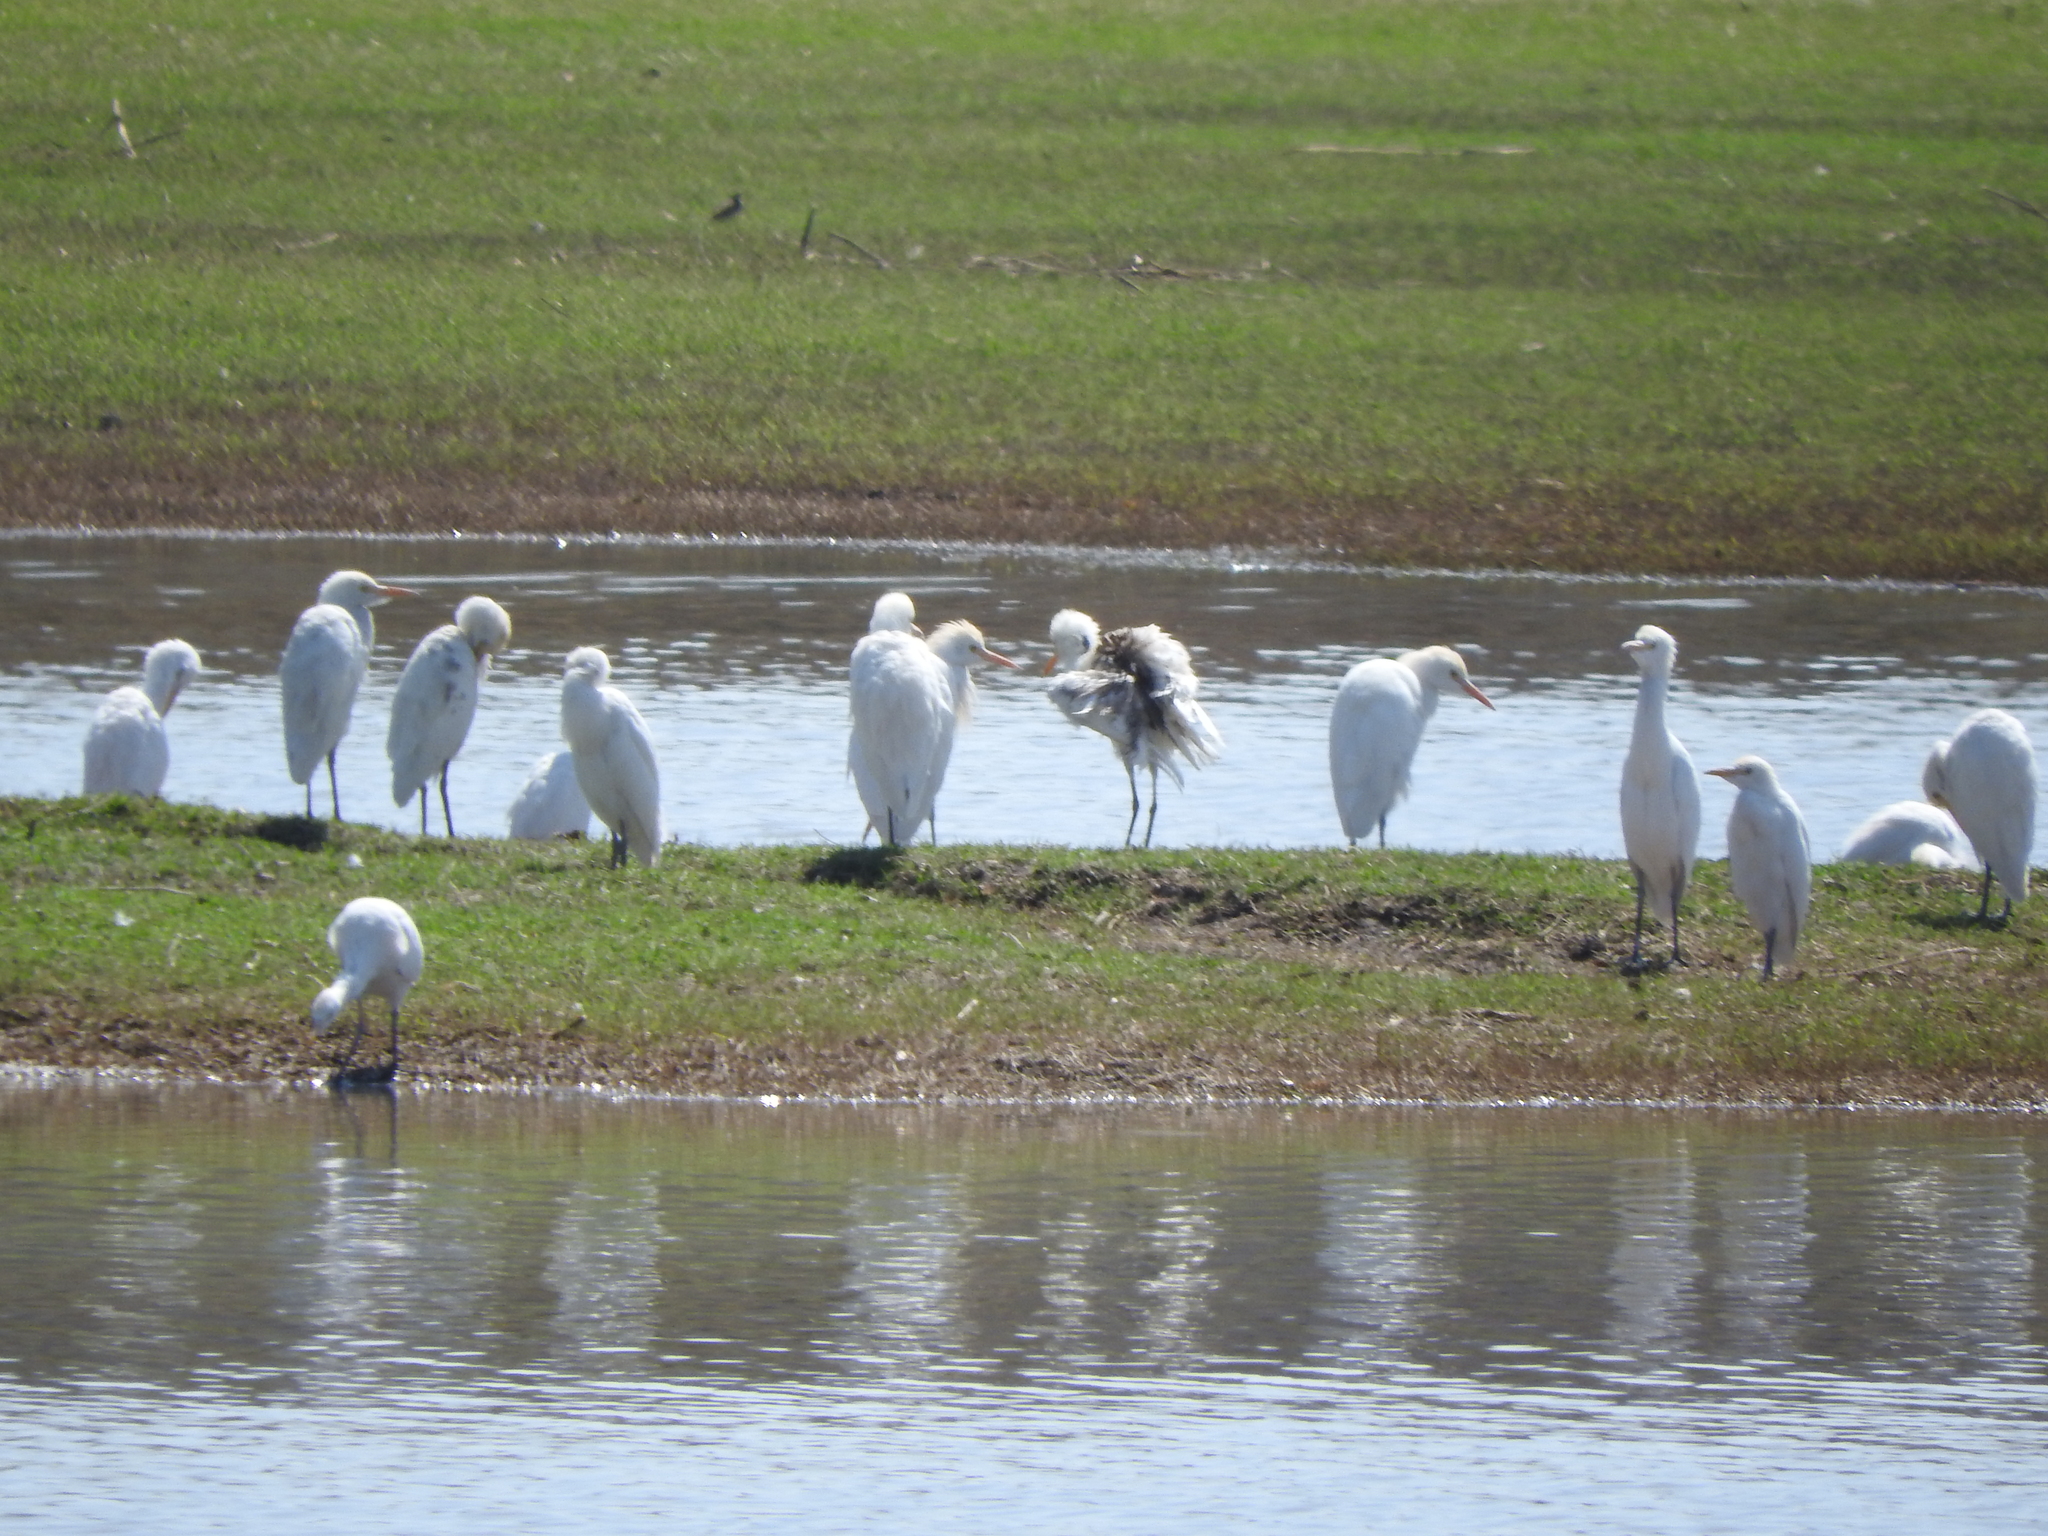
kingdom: Animalia
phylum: Chordata
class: Aves
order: Pelecaniformes
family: Ardeidae
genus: Bubulcus
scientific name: Bubulcus ibis
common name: Cattle egret
